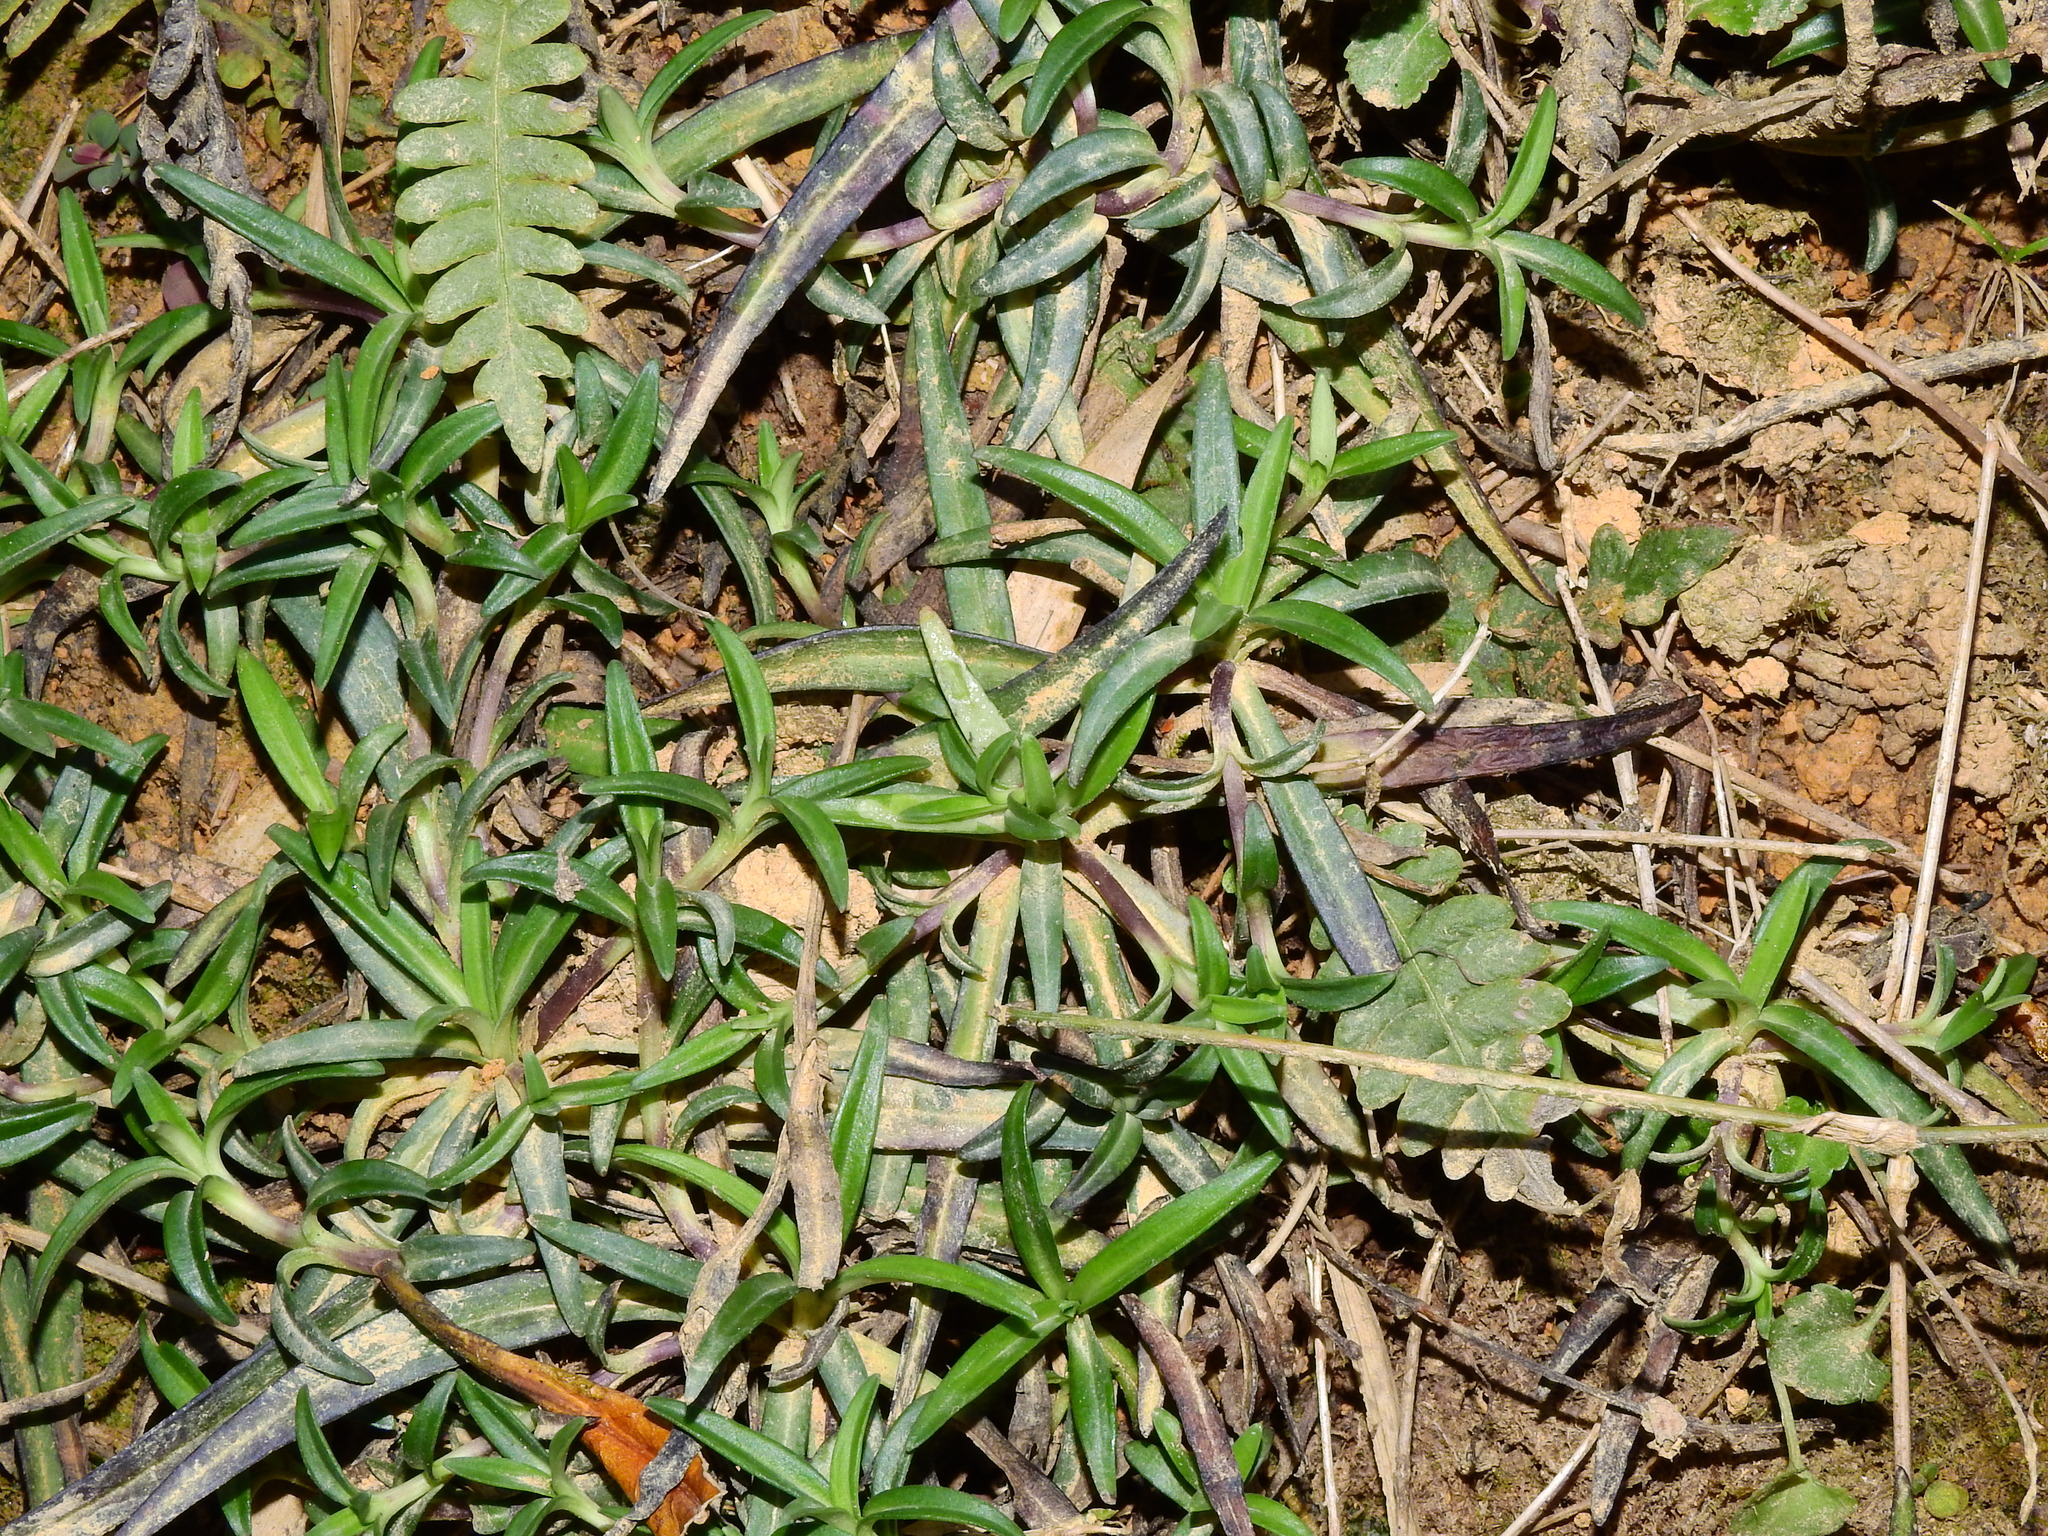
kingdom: Plantae
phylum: Tracheophyta
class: Magnoliopsida
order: Gentianales
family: Gentianaceae
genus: Gentiana
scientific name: Gentiana davidii
